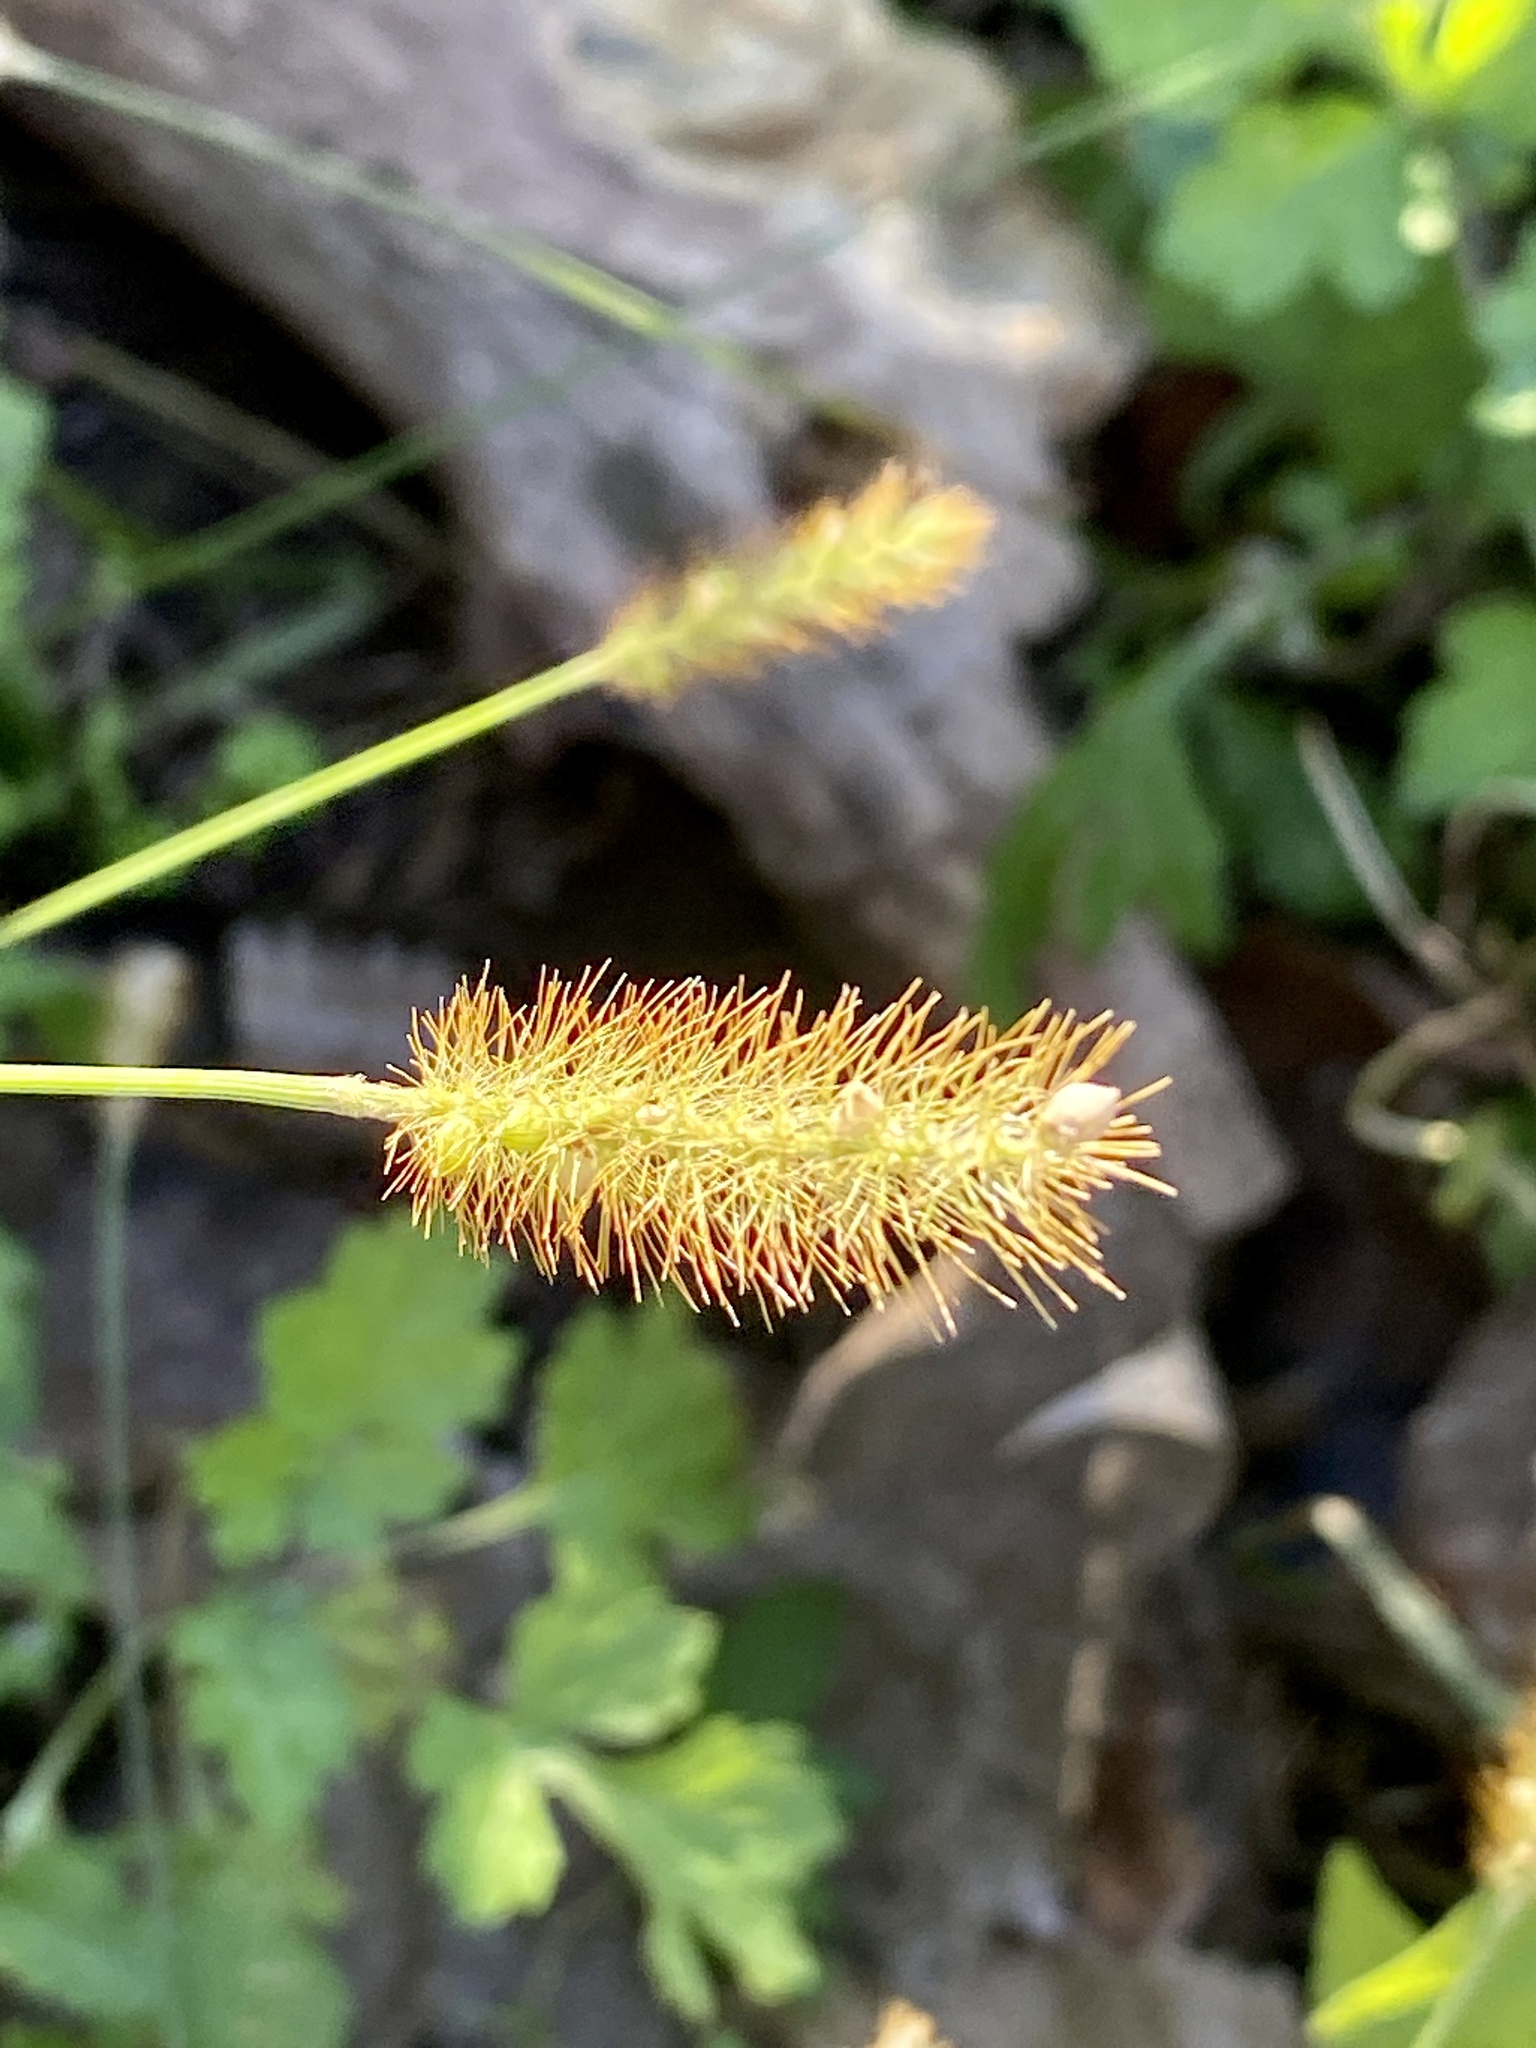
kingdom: Plantae
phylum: Tracheophyta
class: Liliopsida
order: Poales
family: Poaceae
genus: Setaria
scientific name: Setaria pumila
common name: Yellow bristle-grass
